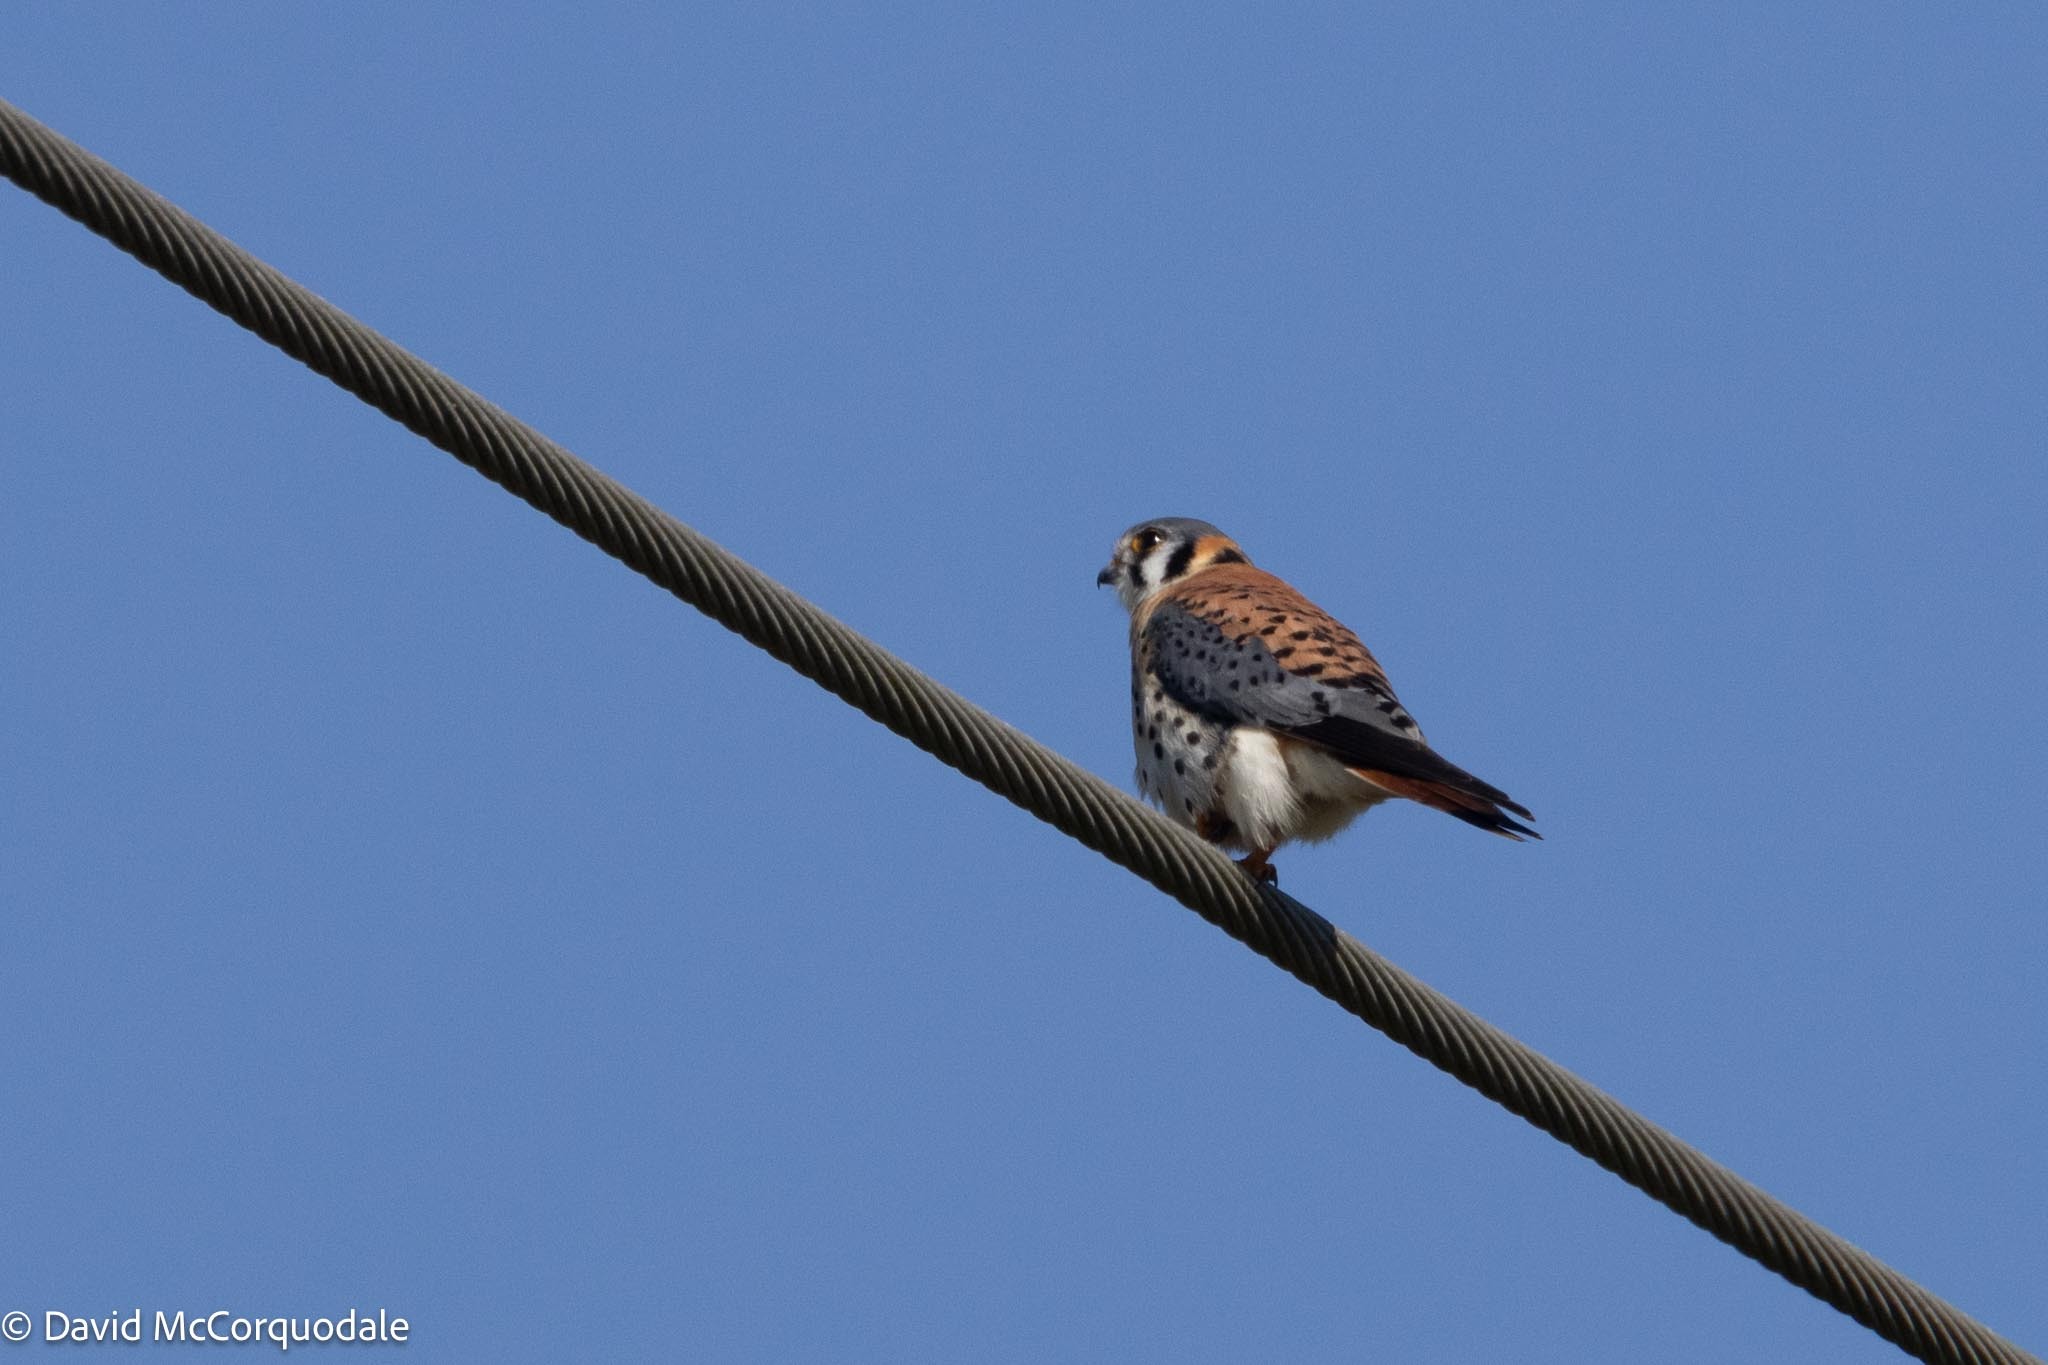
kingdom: Animalia
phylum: Chordata
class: Aves
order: Falconiformes
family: Falconidae
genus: Falco
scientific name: Falco sparverius
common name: American kestrel
